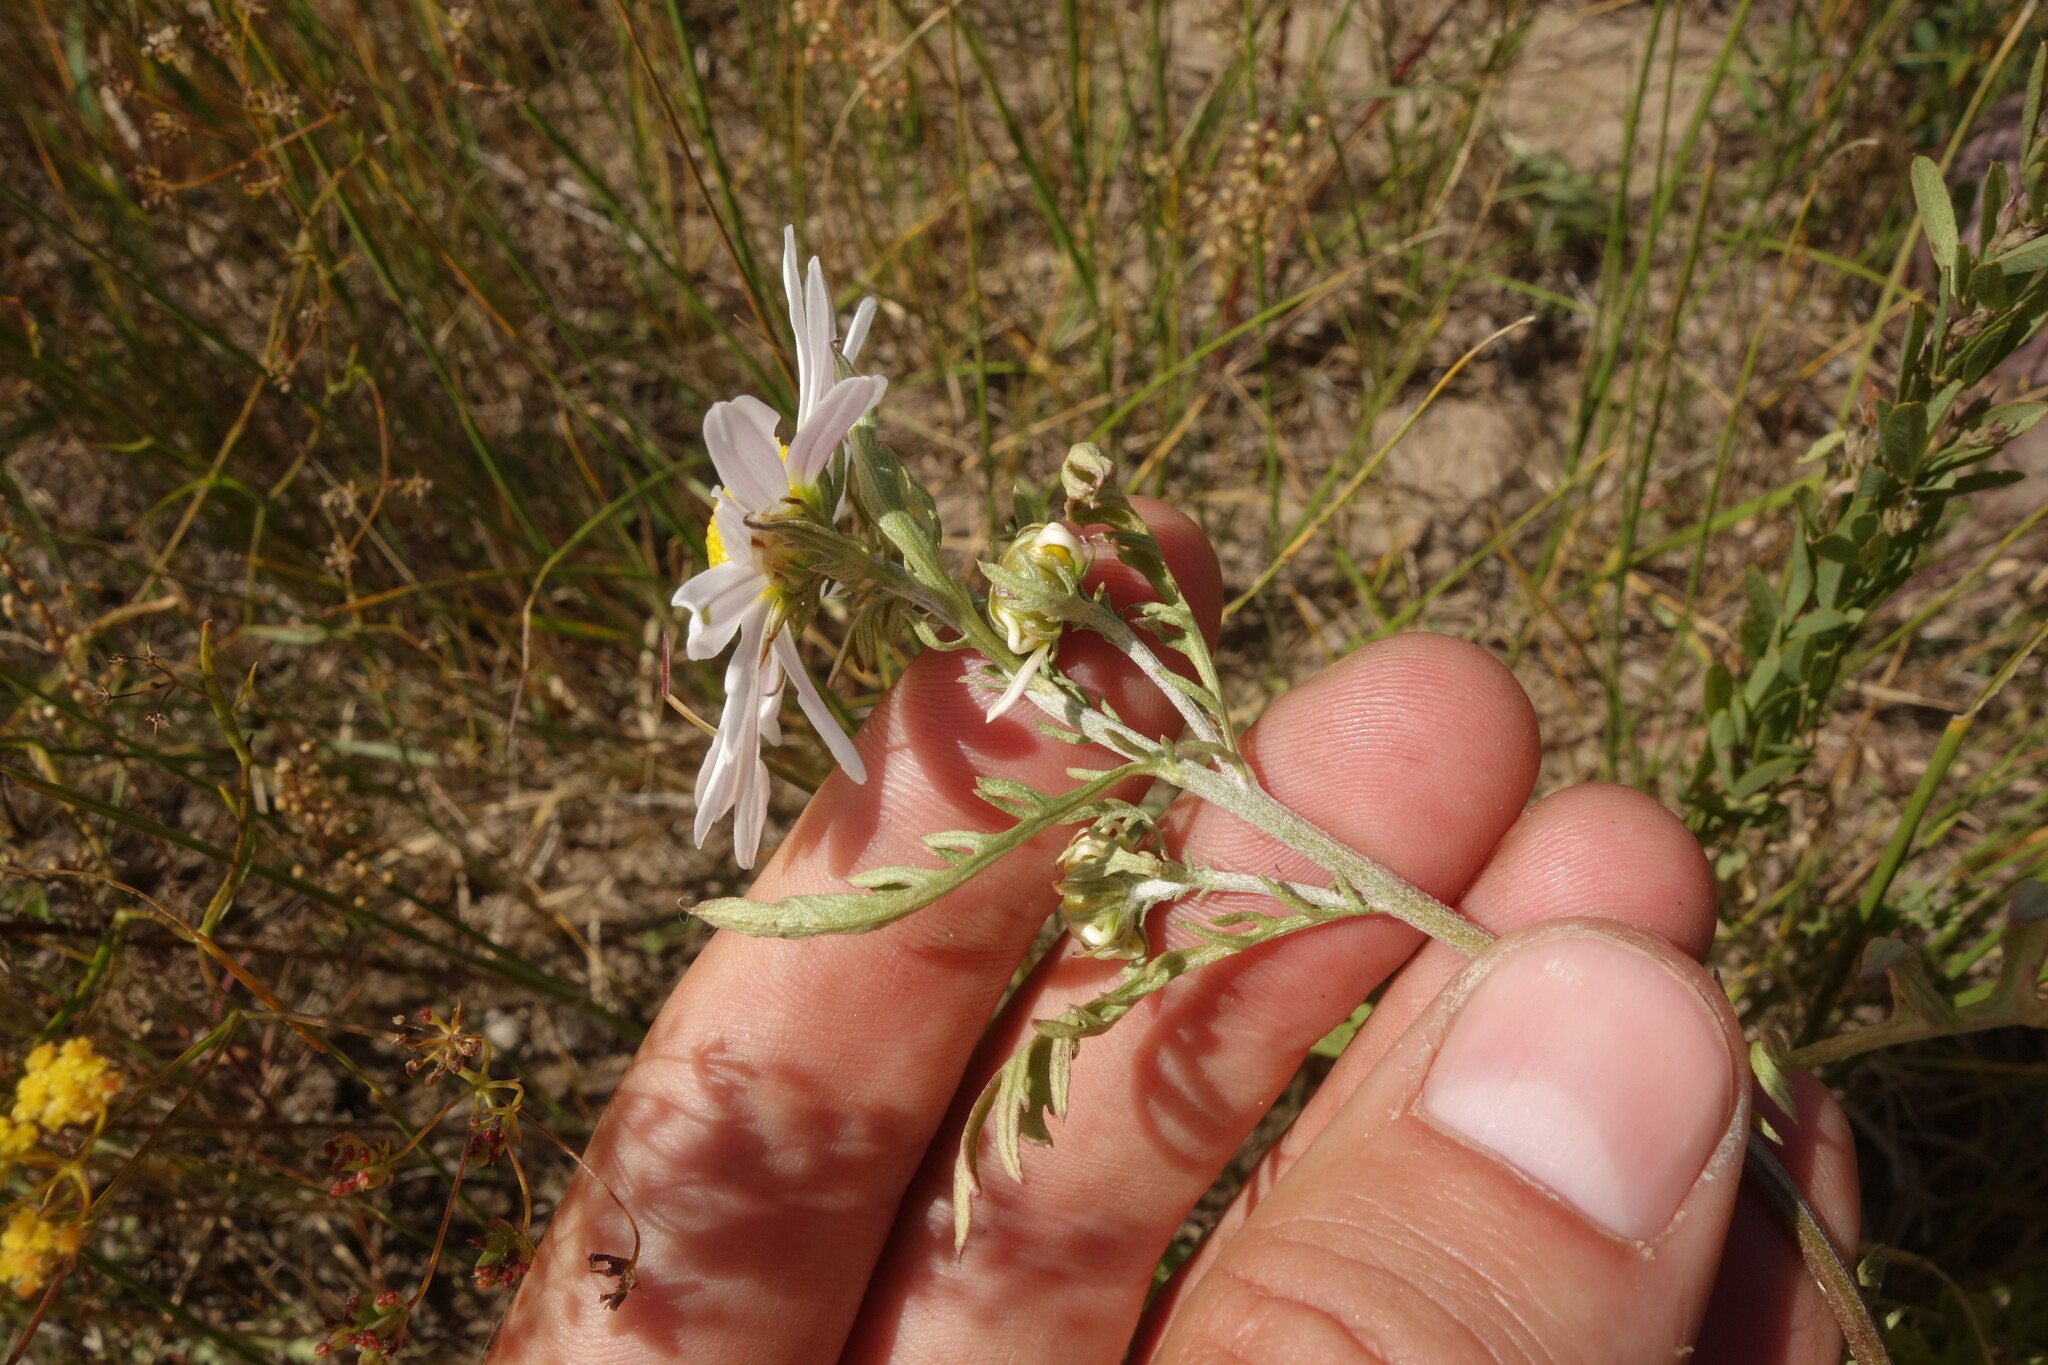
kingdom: Plantae
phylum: Tracheophyta
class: Magnoliopsida
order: Asterales
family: Asteraceae
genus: Chrysanthemum
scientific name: Chrysanthemum zawadzkii
